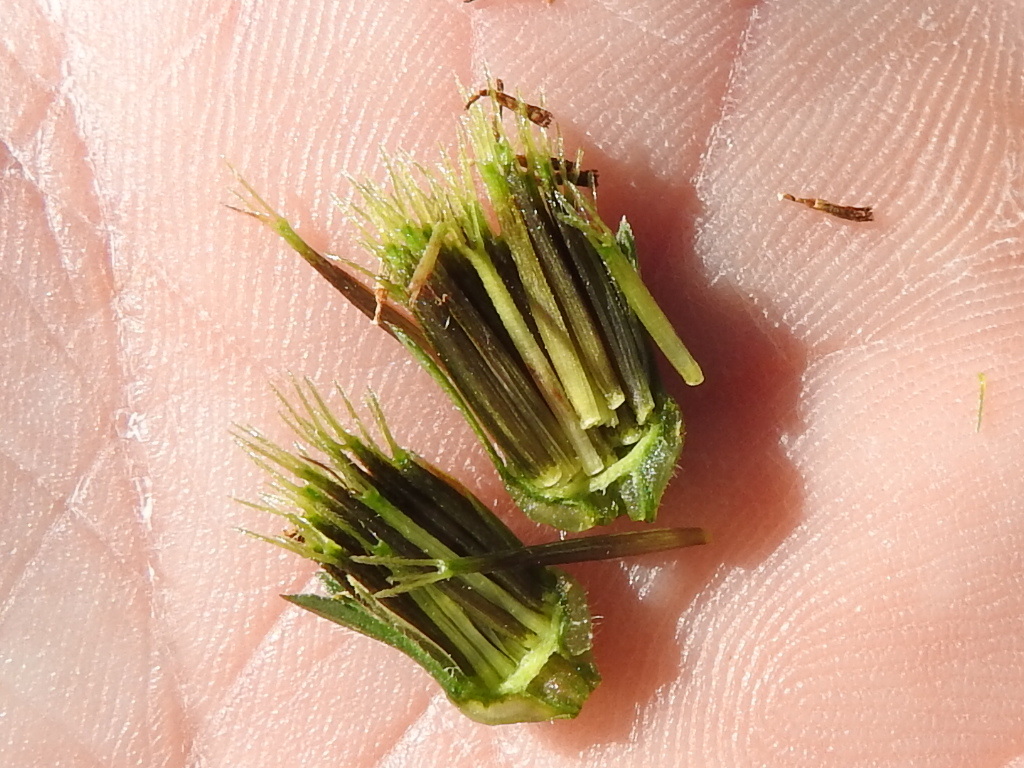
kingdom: Plantae
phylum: Tracheophyta
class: Magnoliopsida
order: Asterales
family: Asteraceae
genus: Bidens
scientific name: Bidens bipinnata
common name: Spanish-needles
